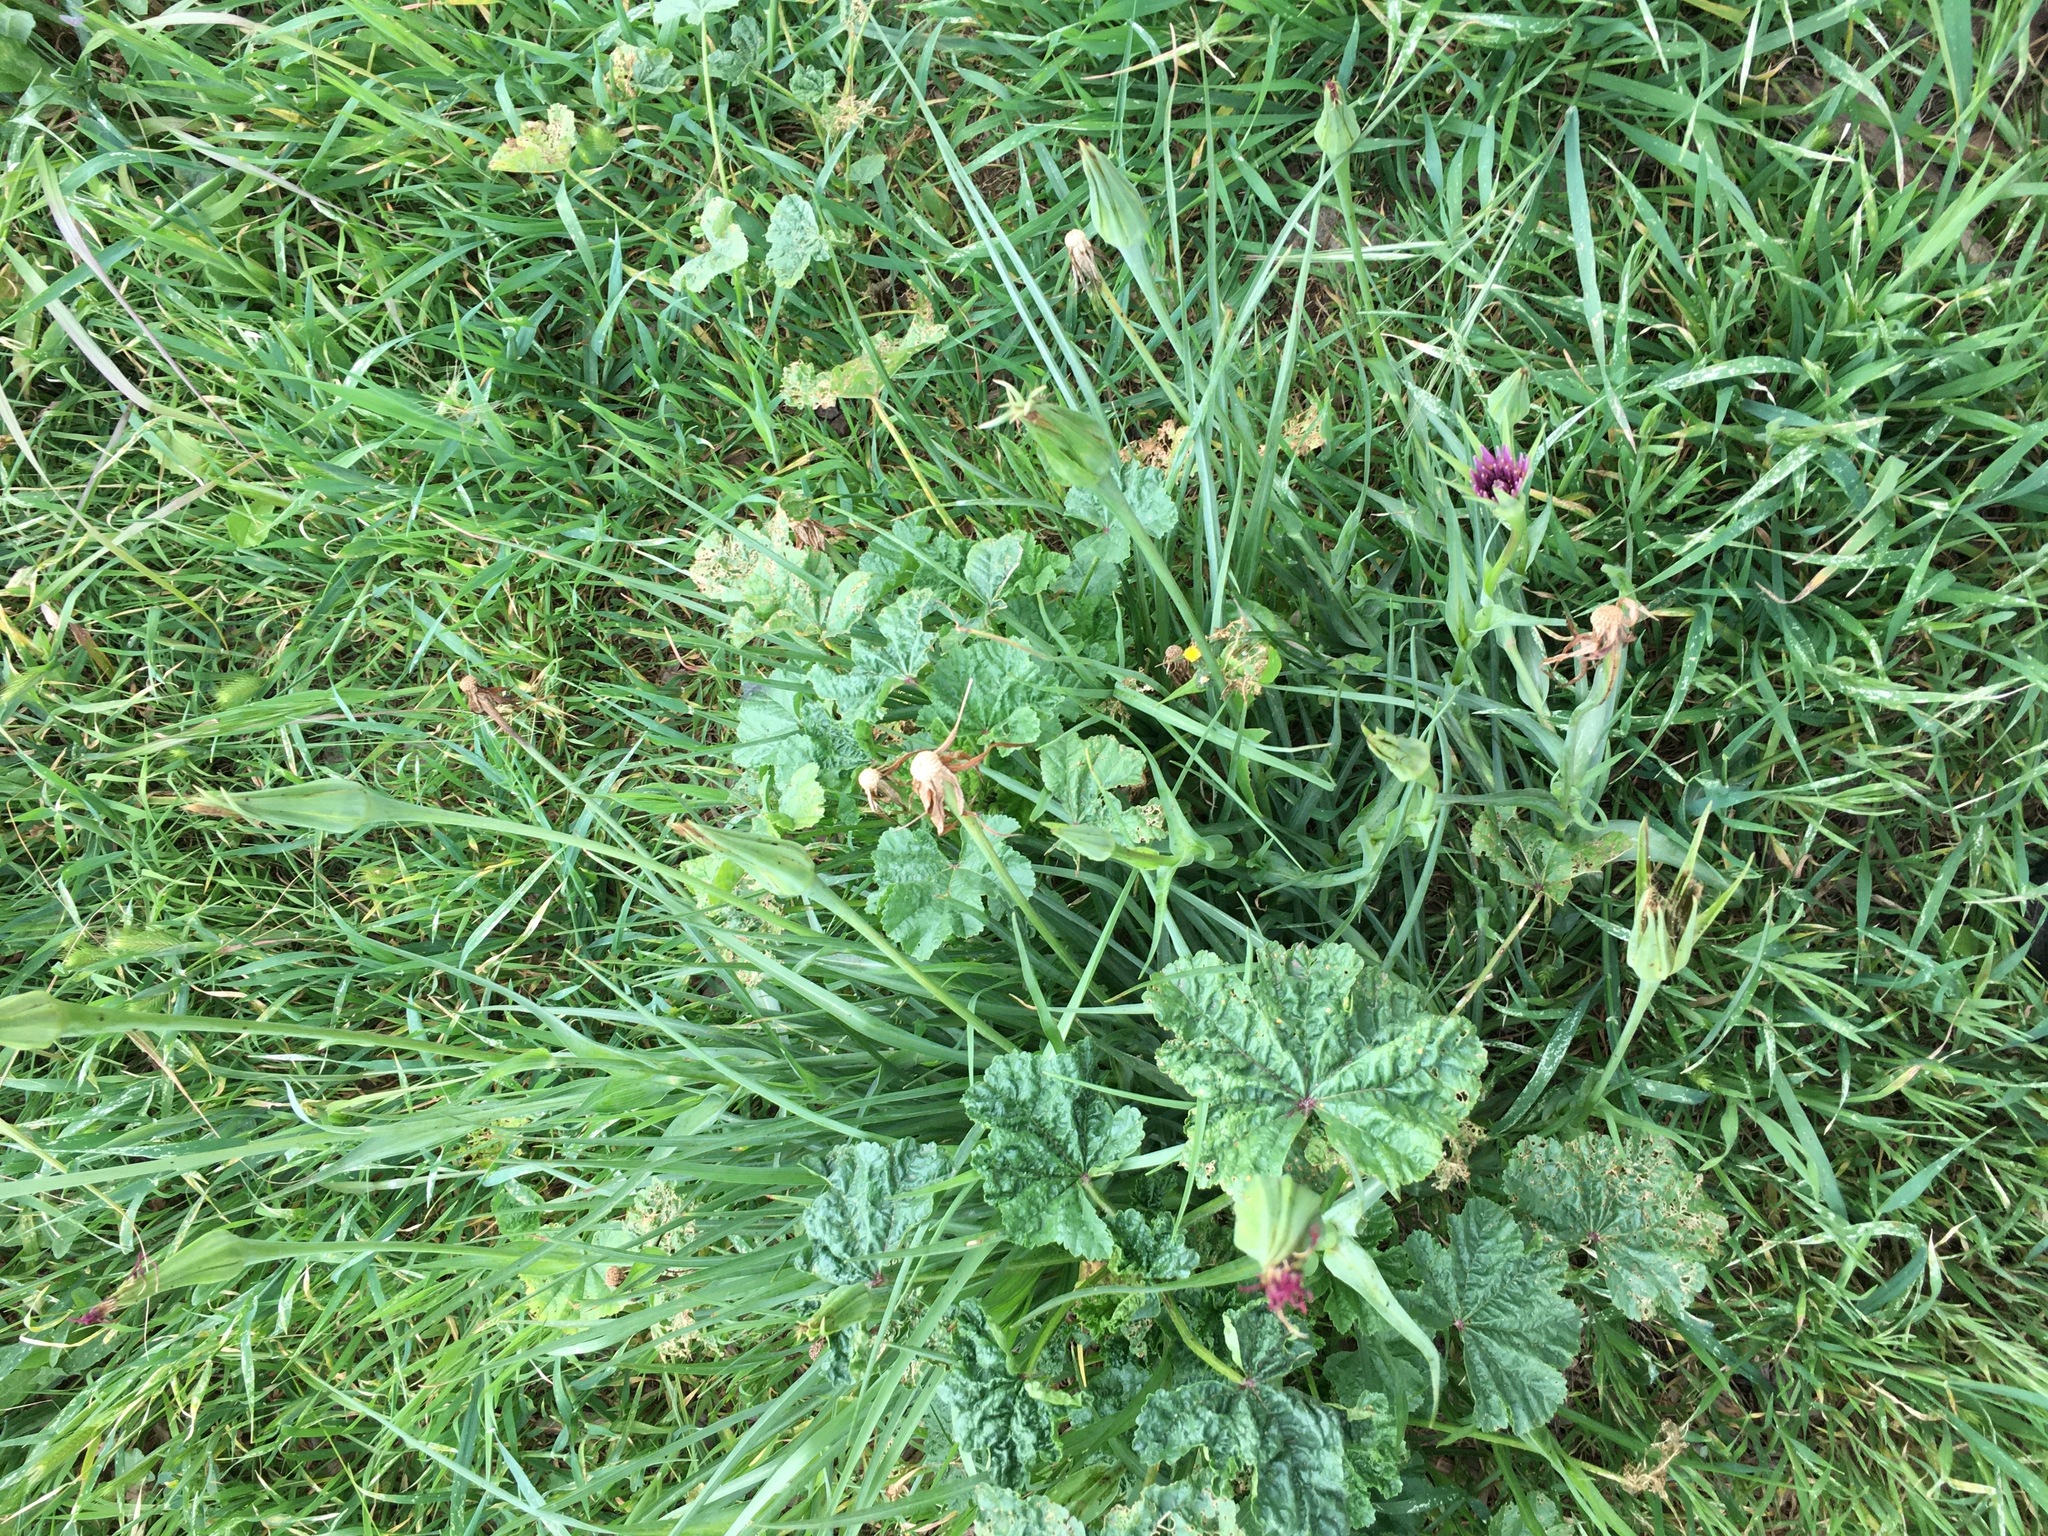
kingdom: Plantae
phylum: Tracheophyta
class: Magnoliopsida
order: Asterales
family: Asteraceae
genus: Tragopogon
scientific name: Tragopogon porrifolius
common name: Salsify
